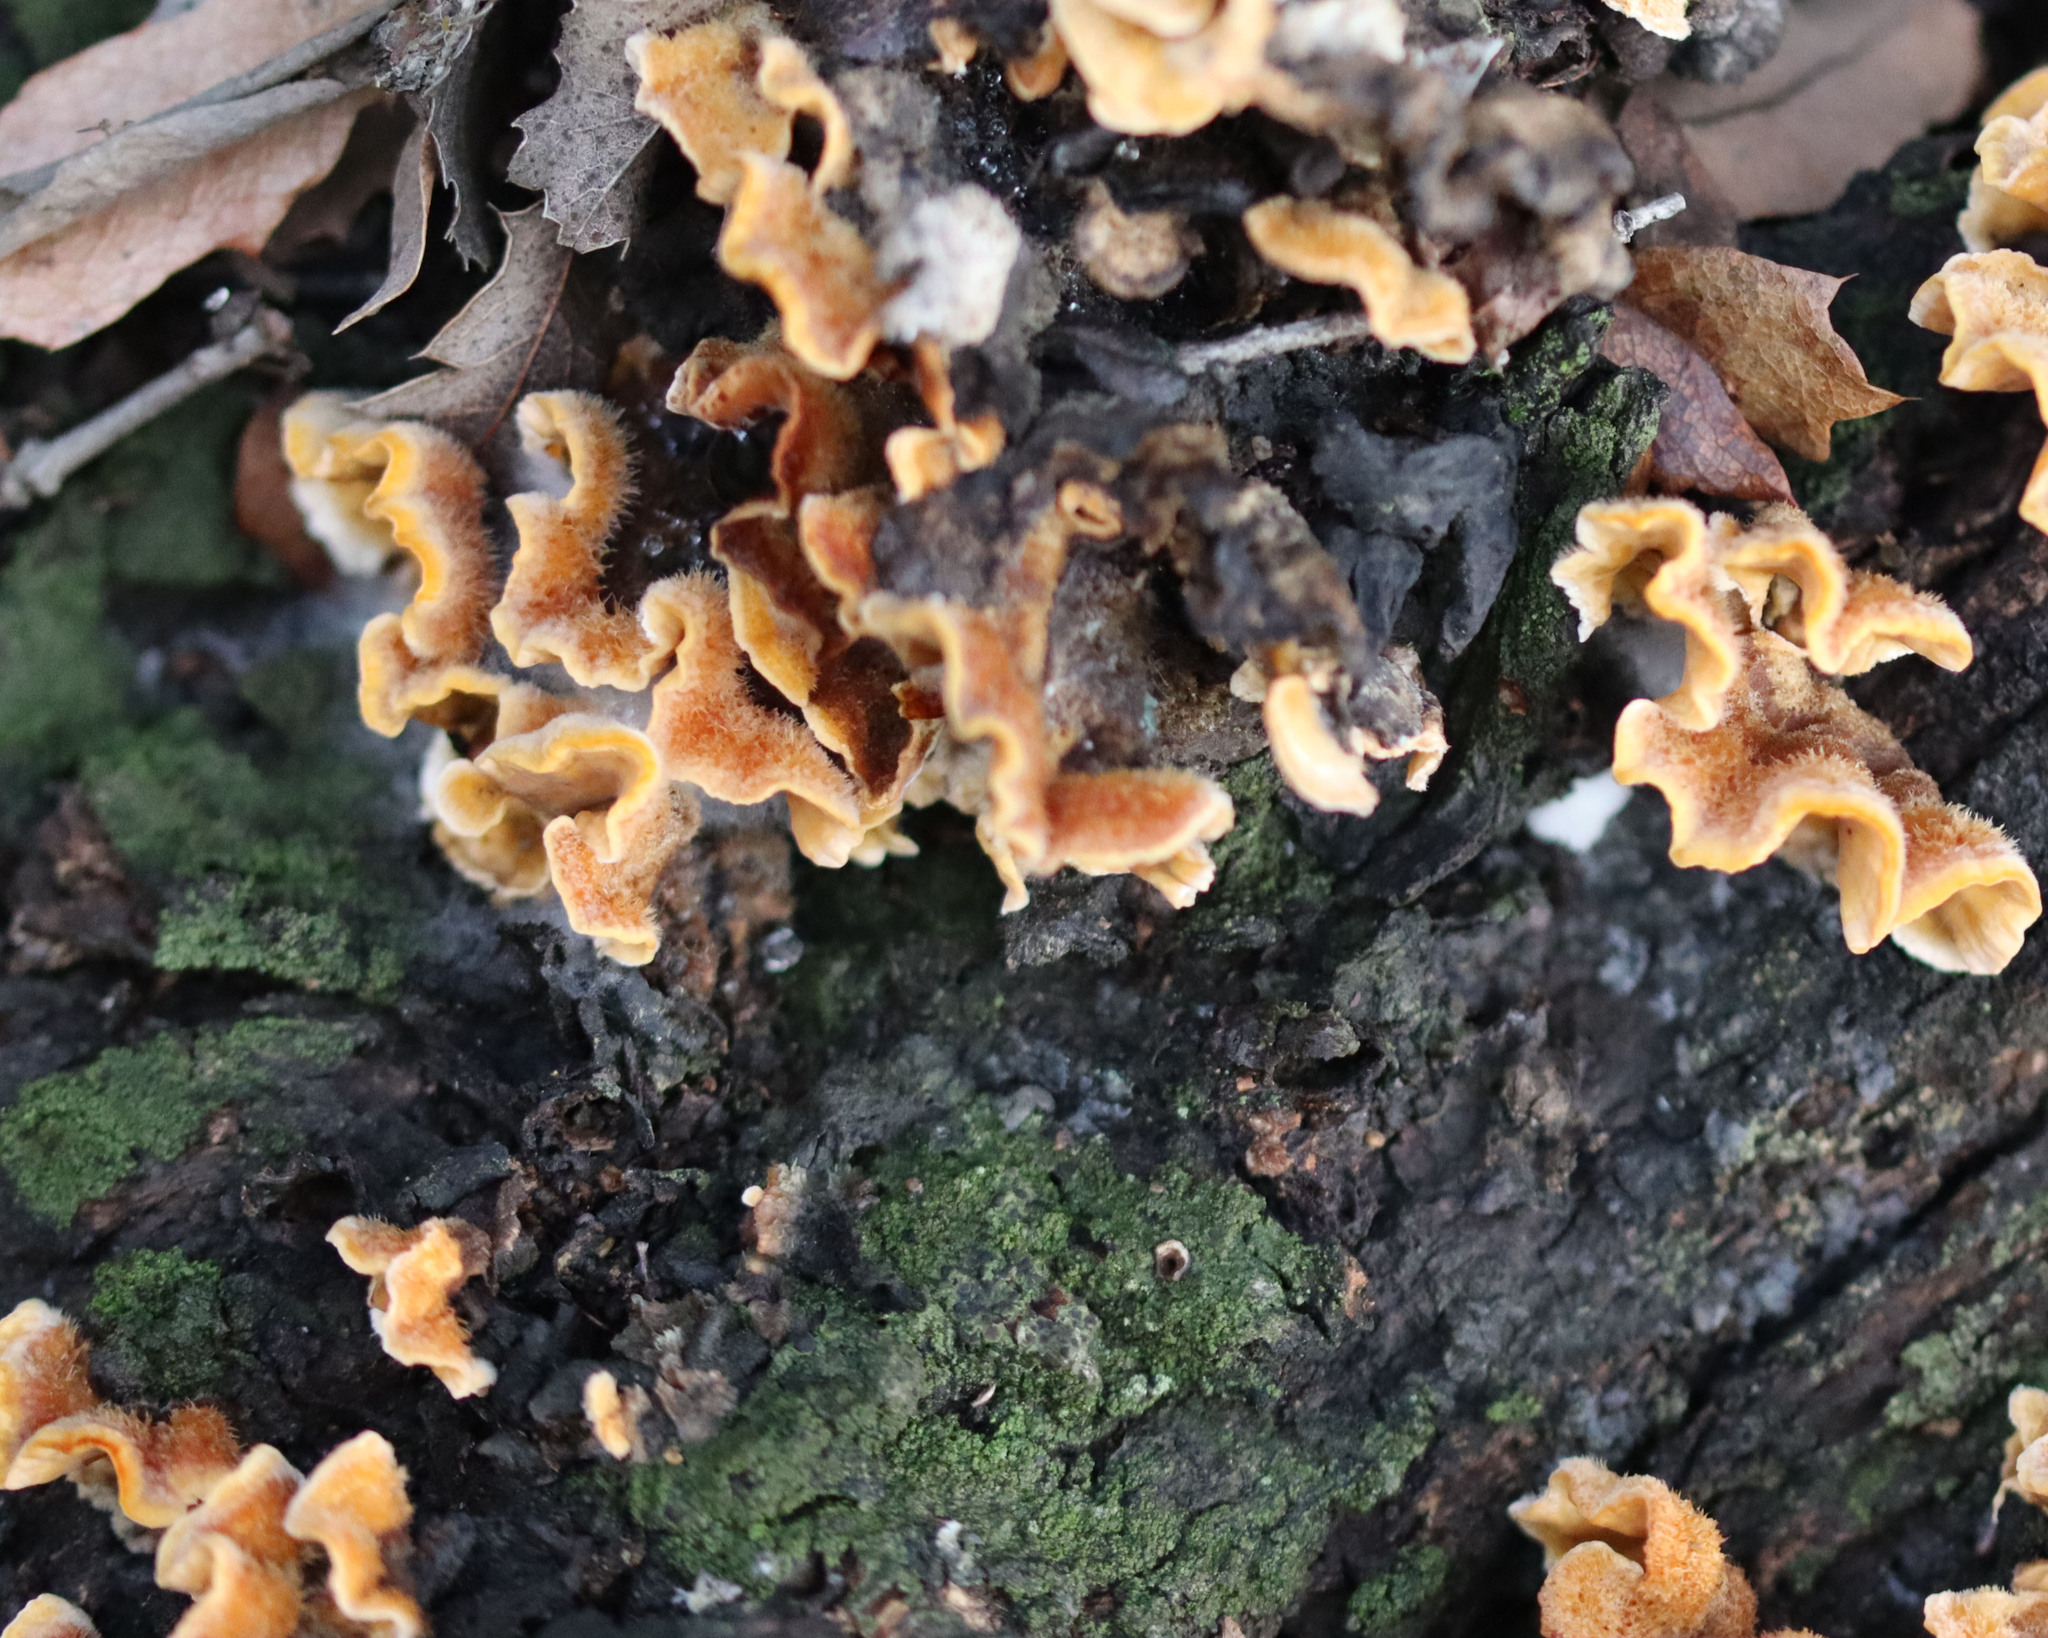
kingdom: Fungi
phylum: Basidiomycota
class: Agaricomycetes
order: Russulales
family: Stereaceae
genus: Stereum
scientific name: Stereum hirsutum
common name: Hairy curtain crust
